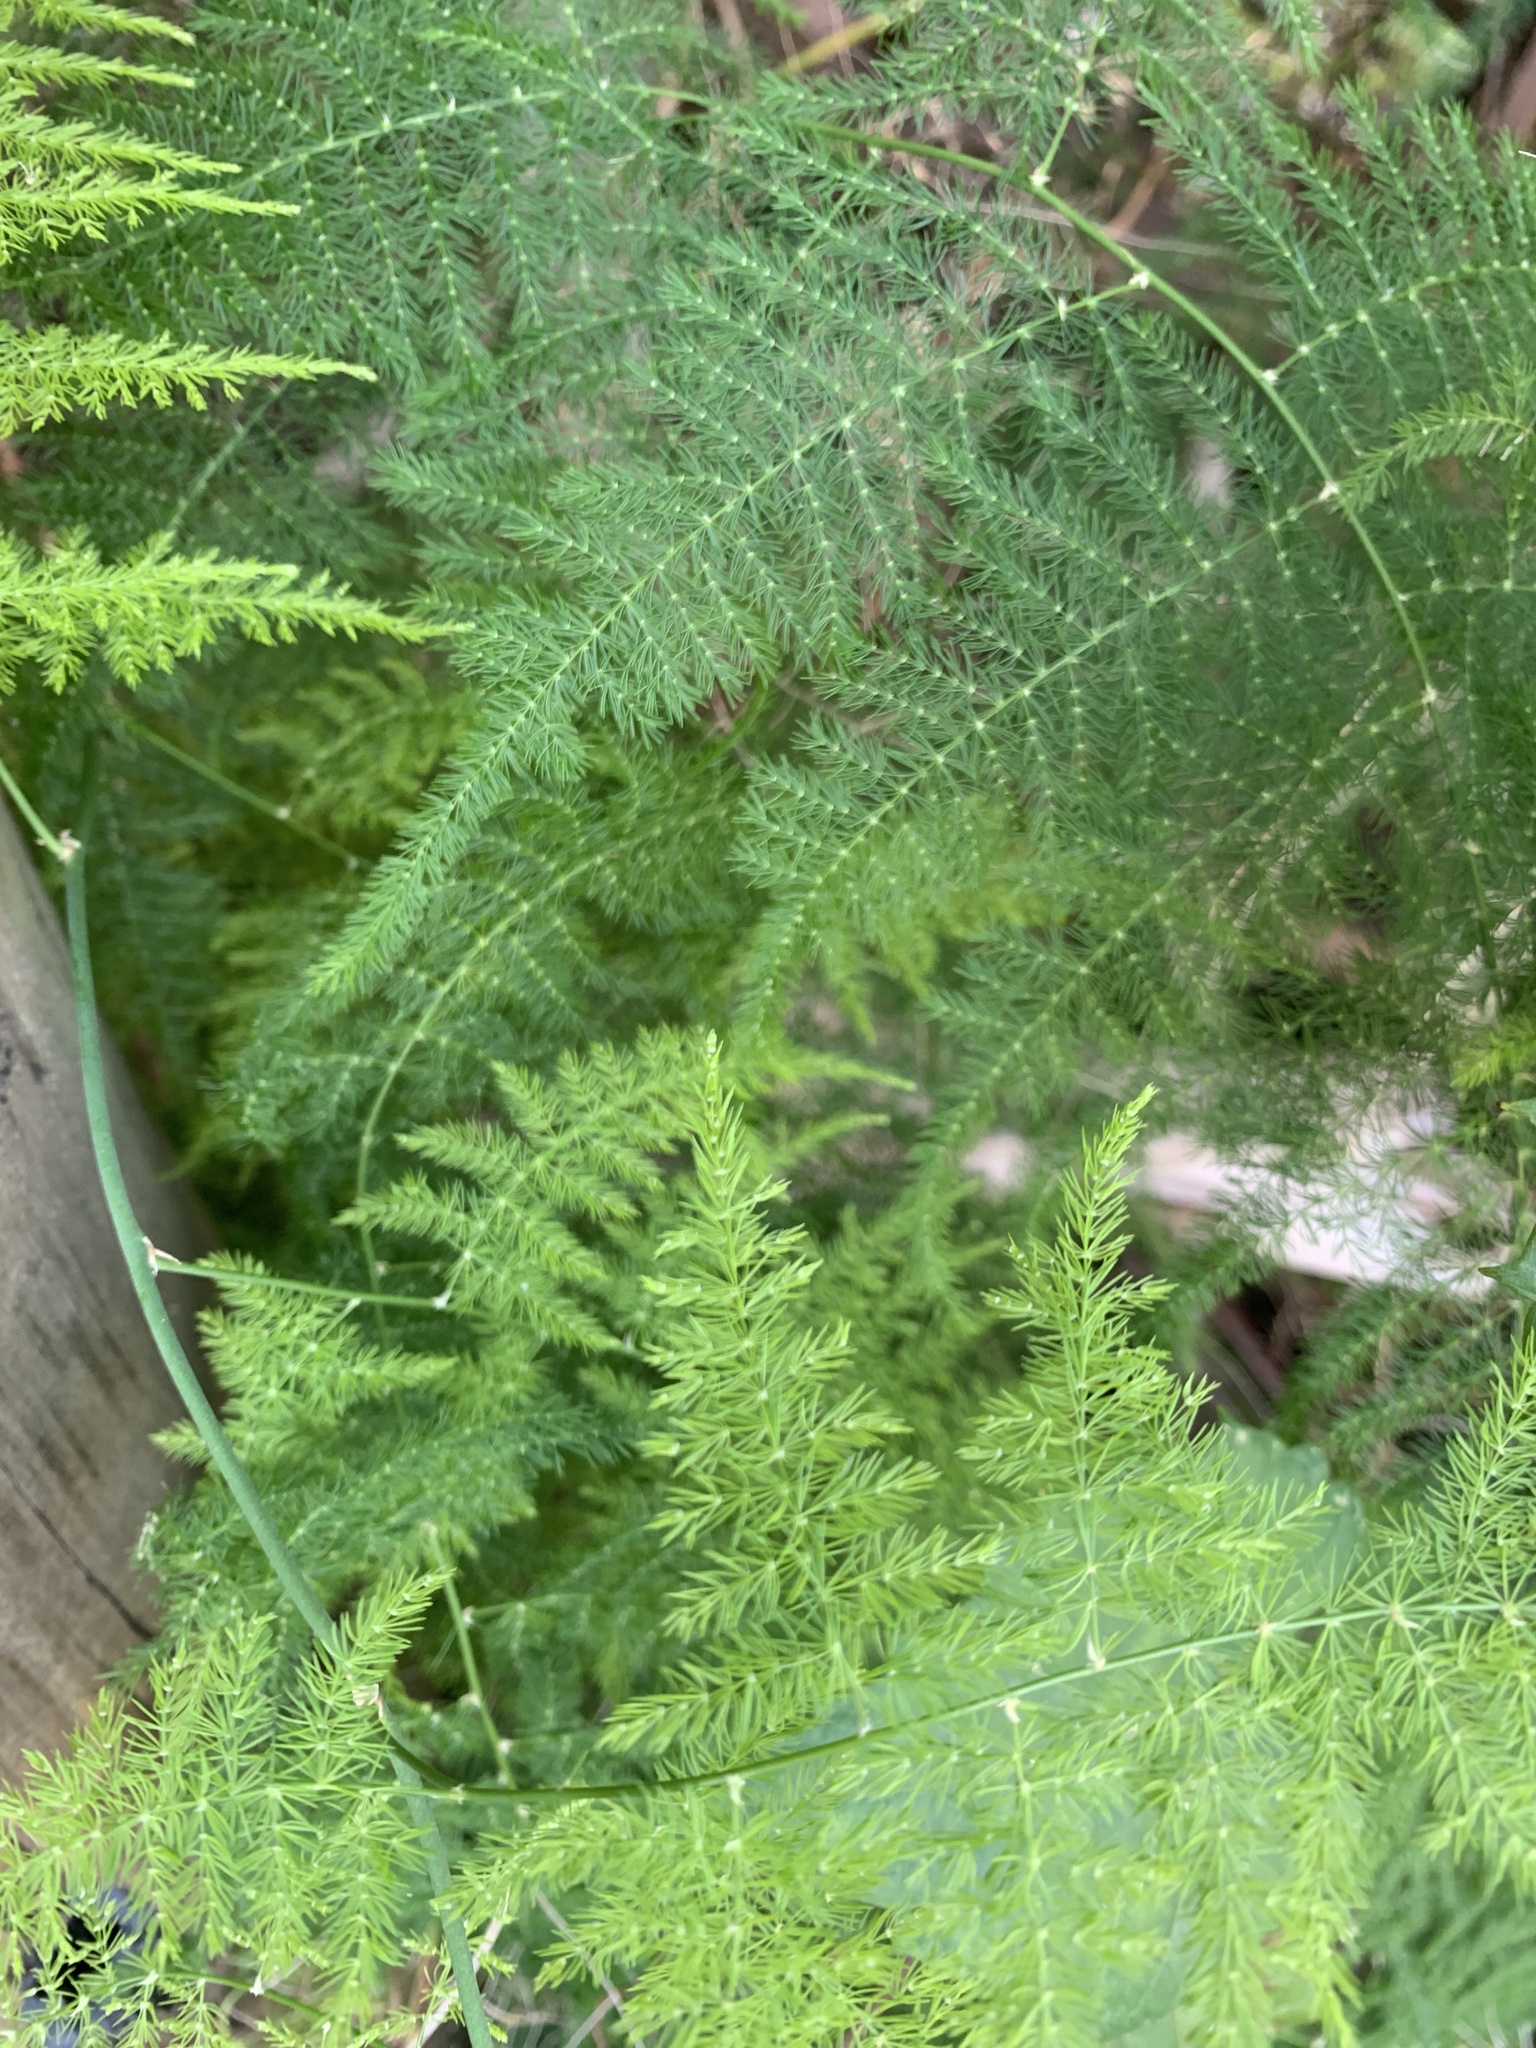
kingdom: Plantae
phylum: Tracheophyta
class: Liliopsida
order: Asparagales
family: Asparagaceae
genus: Asparagus
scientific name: Asparagus setaceus
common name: Common asparagus fern
